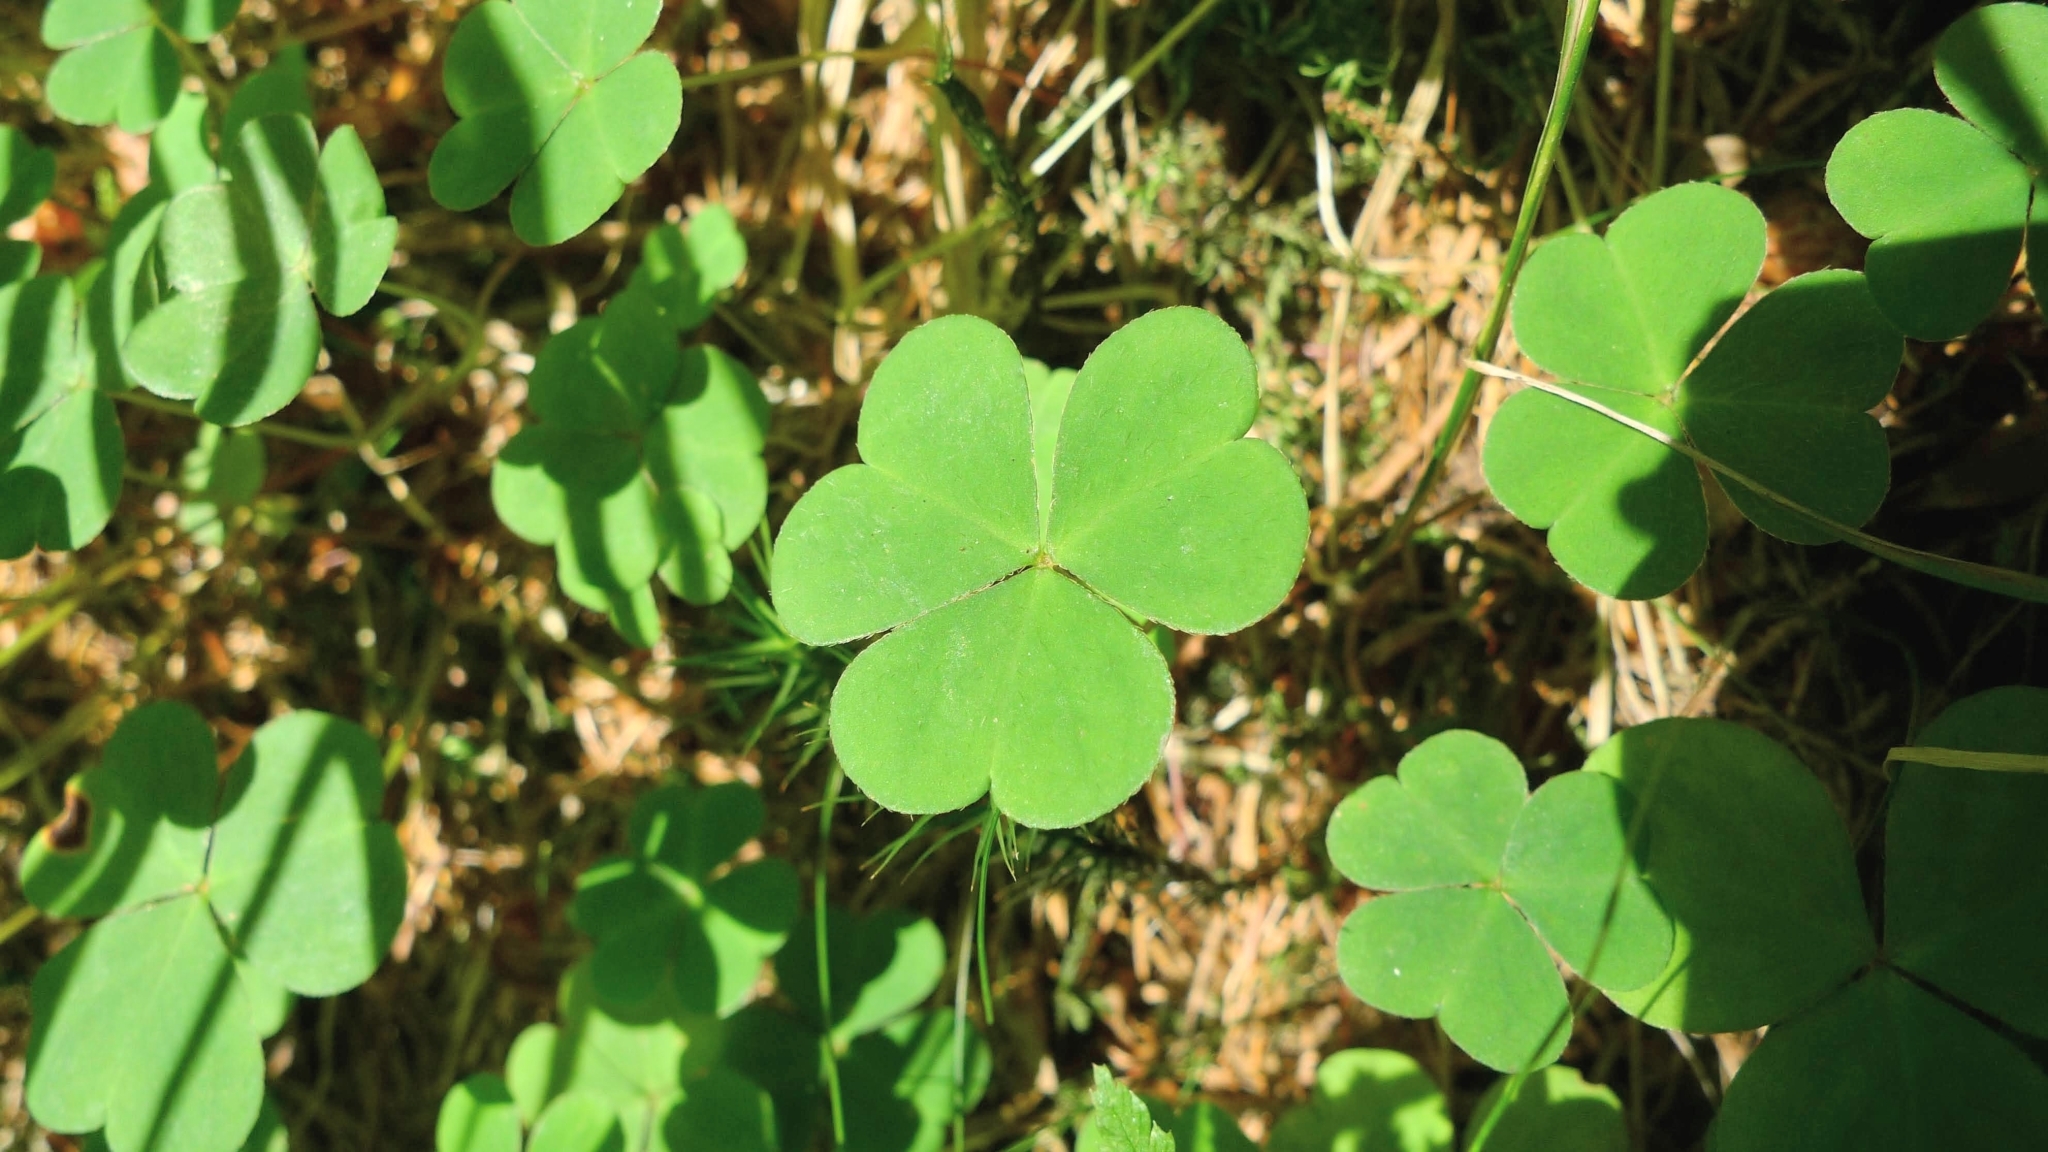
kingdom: Plantae
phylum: Tracheophyta
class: Magnoliopsida
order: Oxalidales
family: Oxalidaceae
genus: Oxalis
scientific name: Oxalis acetosella
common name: Wood-sorrel
